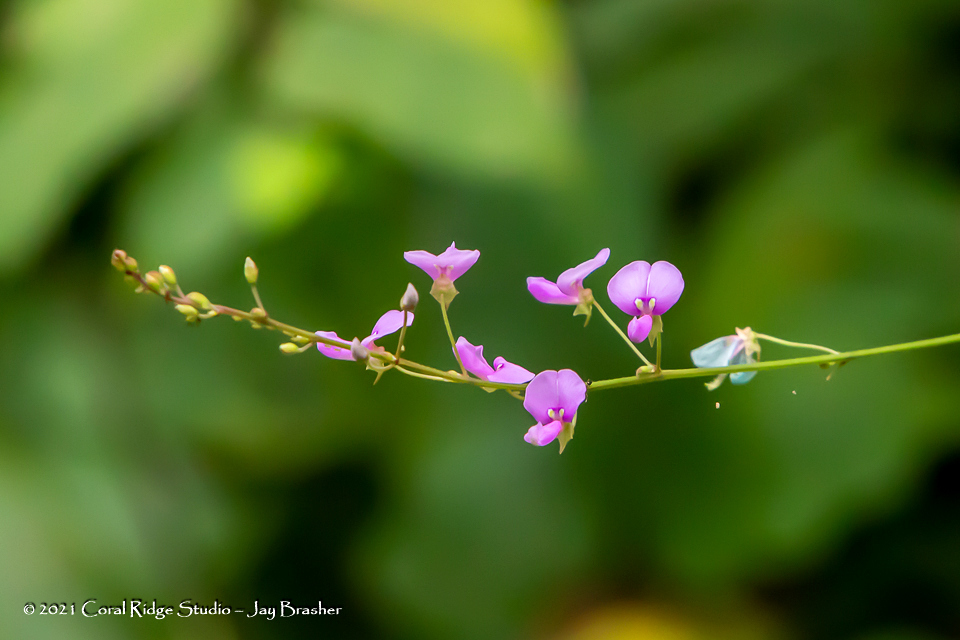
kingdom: Plantae
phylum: Tracheophyta
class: Magnoliopsida
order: Fabales
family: Fabaceae
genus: Desmodium
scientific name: Desmodium glabellum
